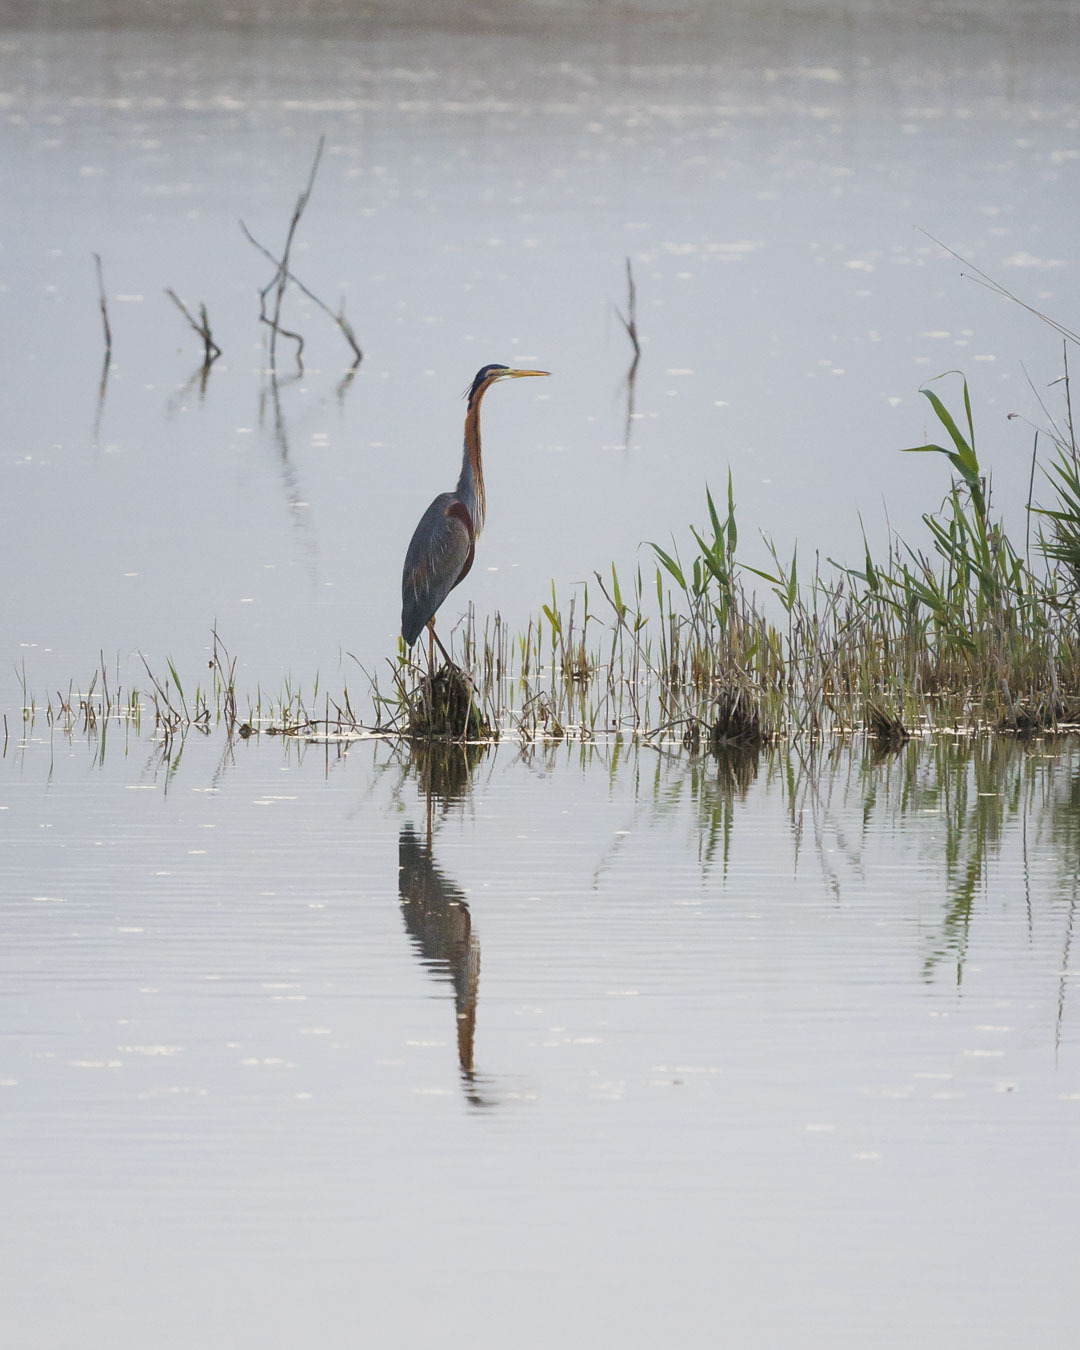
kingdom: Animalia
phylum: Chordata
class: Aves
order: Pelecaniformes
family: Ardeidae
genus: Ardea
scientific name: Ardea purpurea
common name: Purple heron
